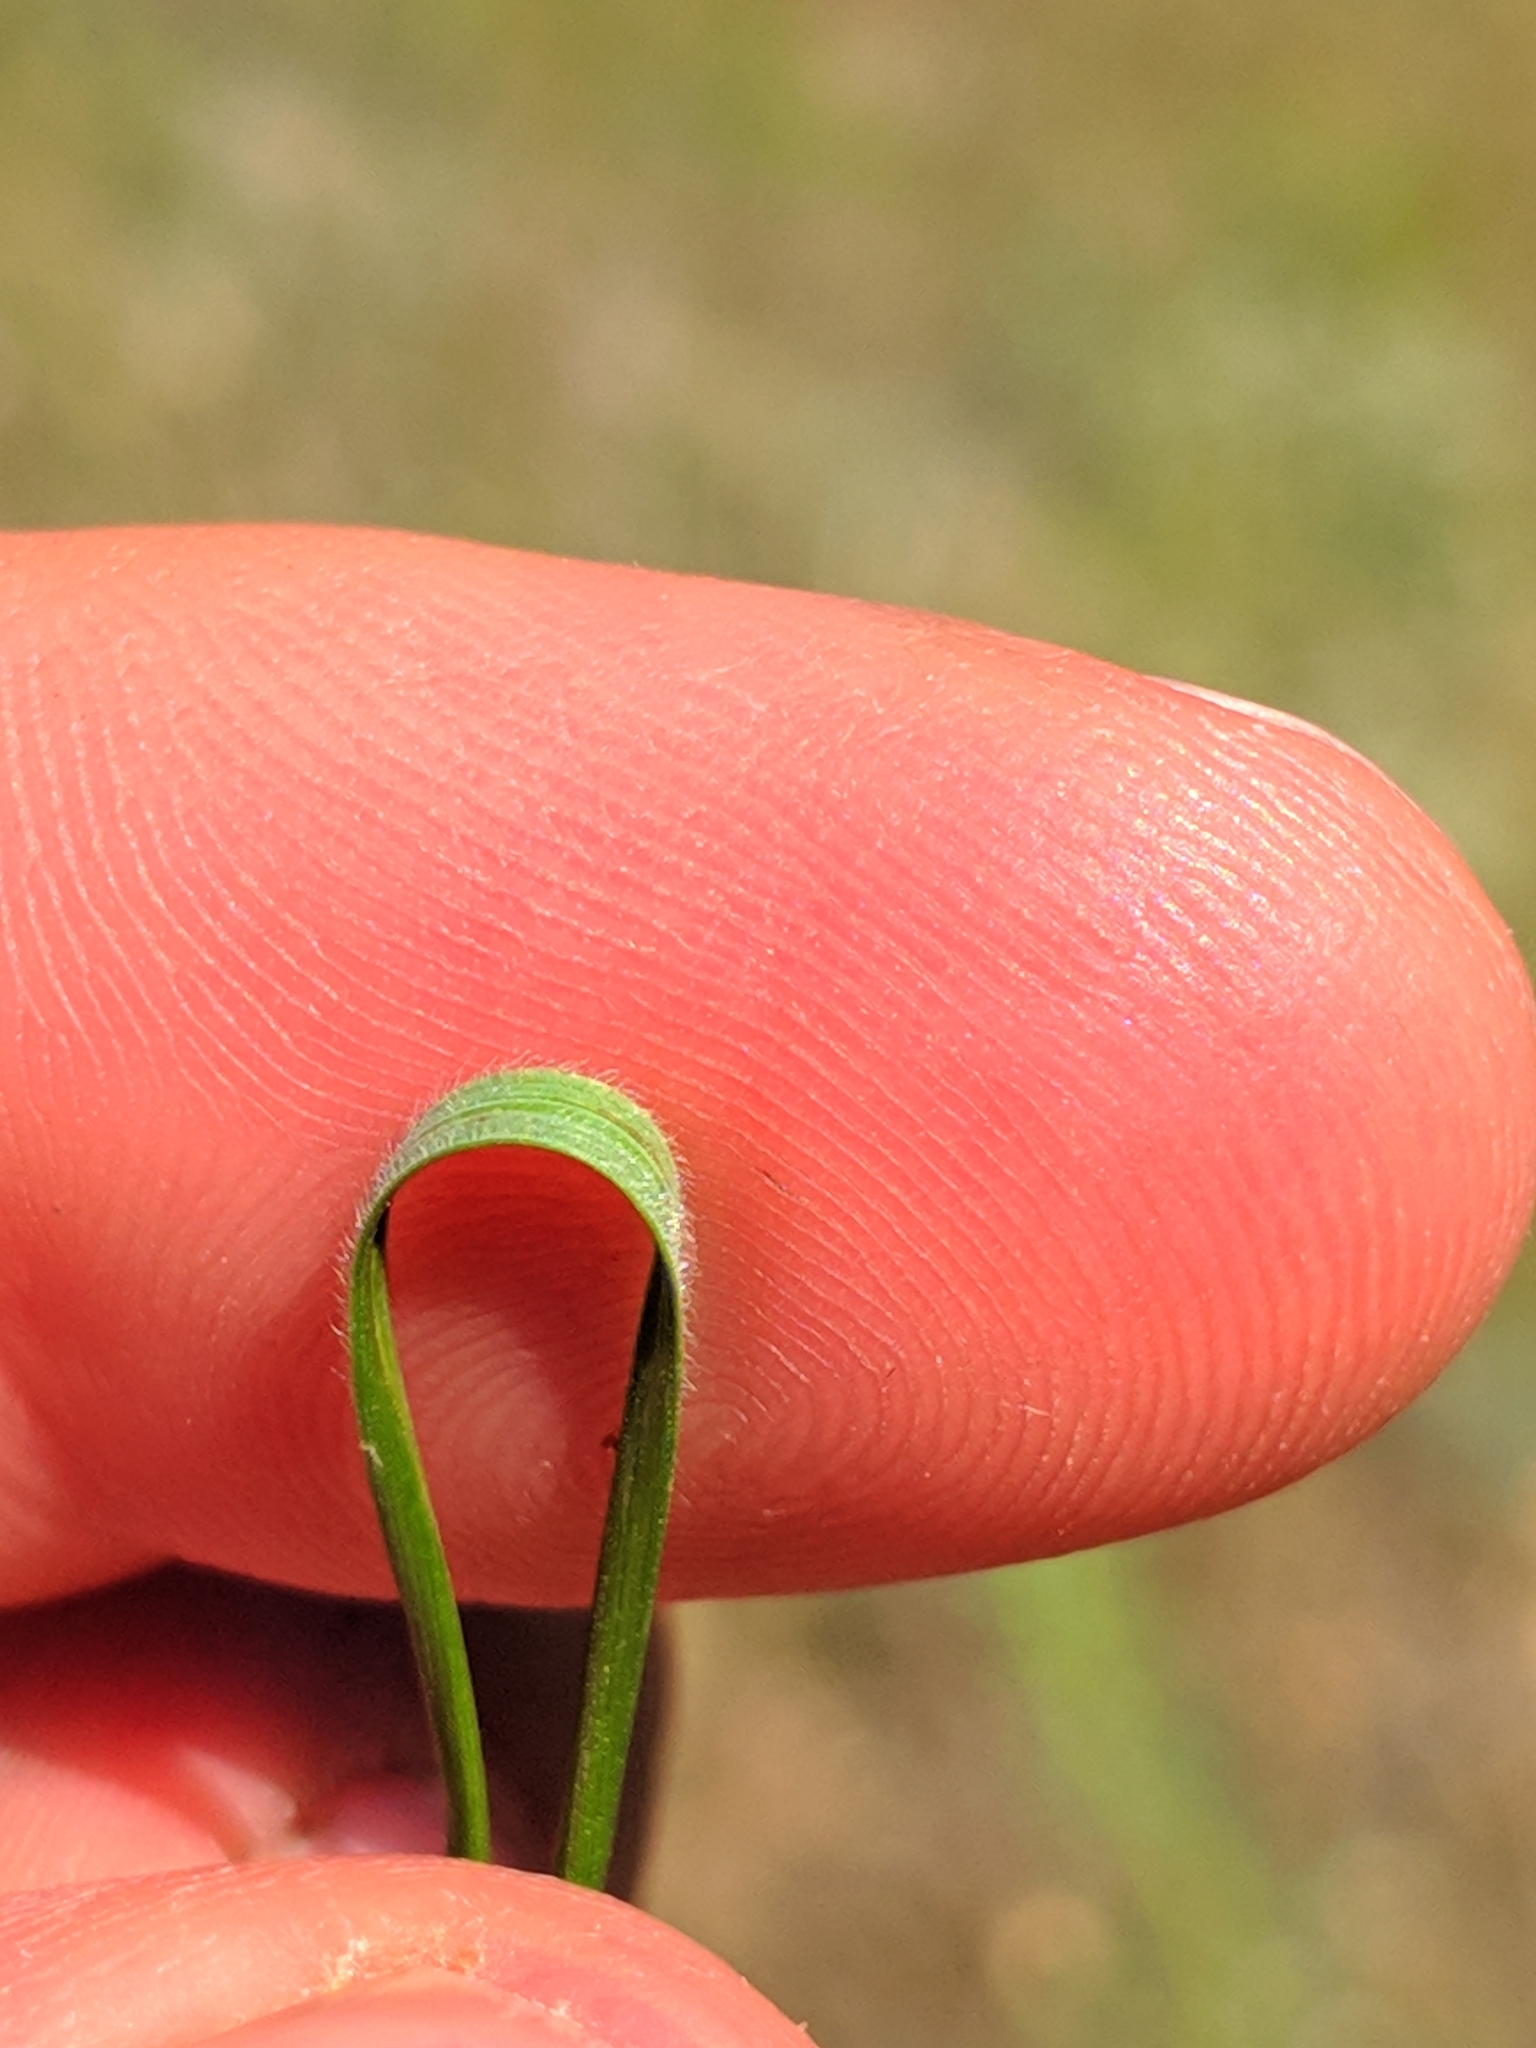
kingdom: Plantae
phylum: Tracheophyta
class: Liliopsida
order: Poales
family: Poaceae
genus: Stipa
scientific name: Stipa capillata
